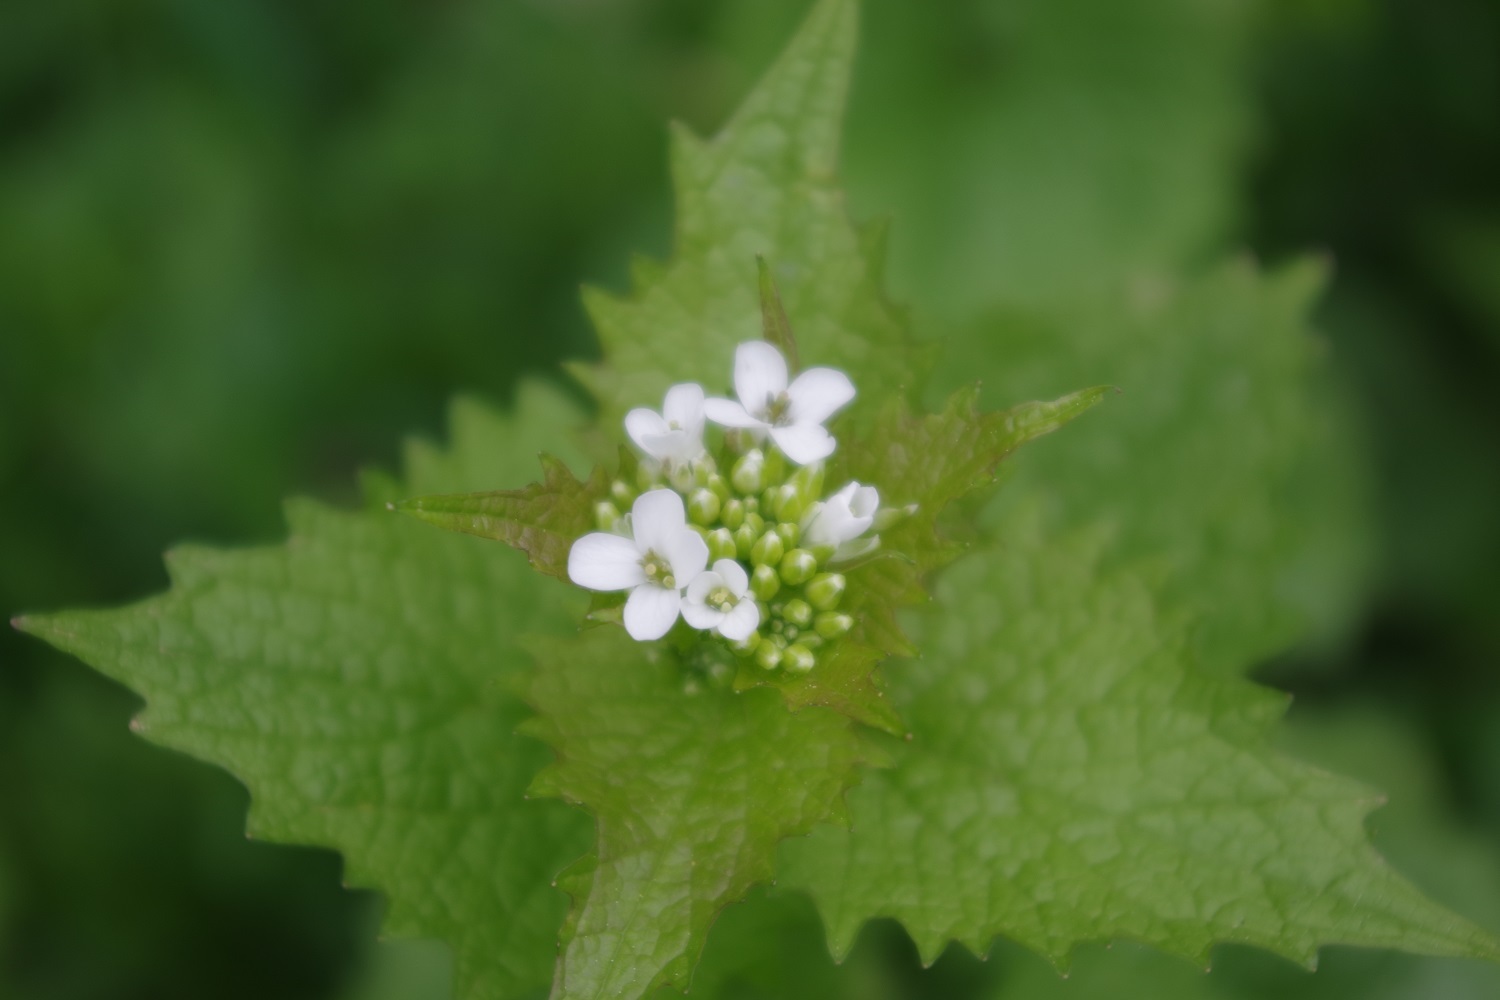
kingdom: Plantae
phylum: Tracheophyta
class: Magnoliopsida
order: Brassicales
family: Brassicaceae
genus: Alliaria
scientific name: Alliaria petiolata
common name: Garlic mustard
